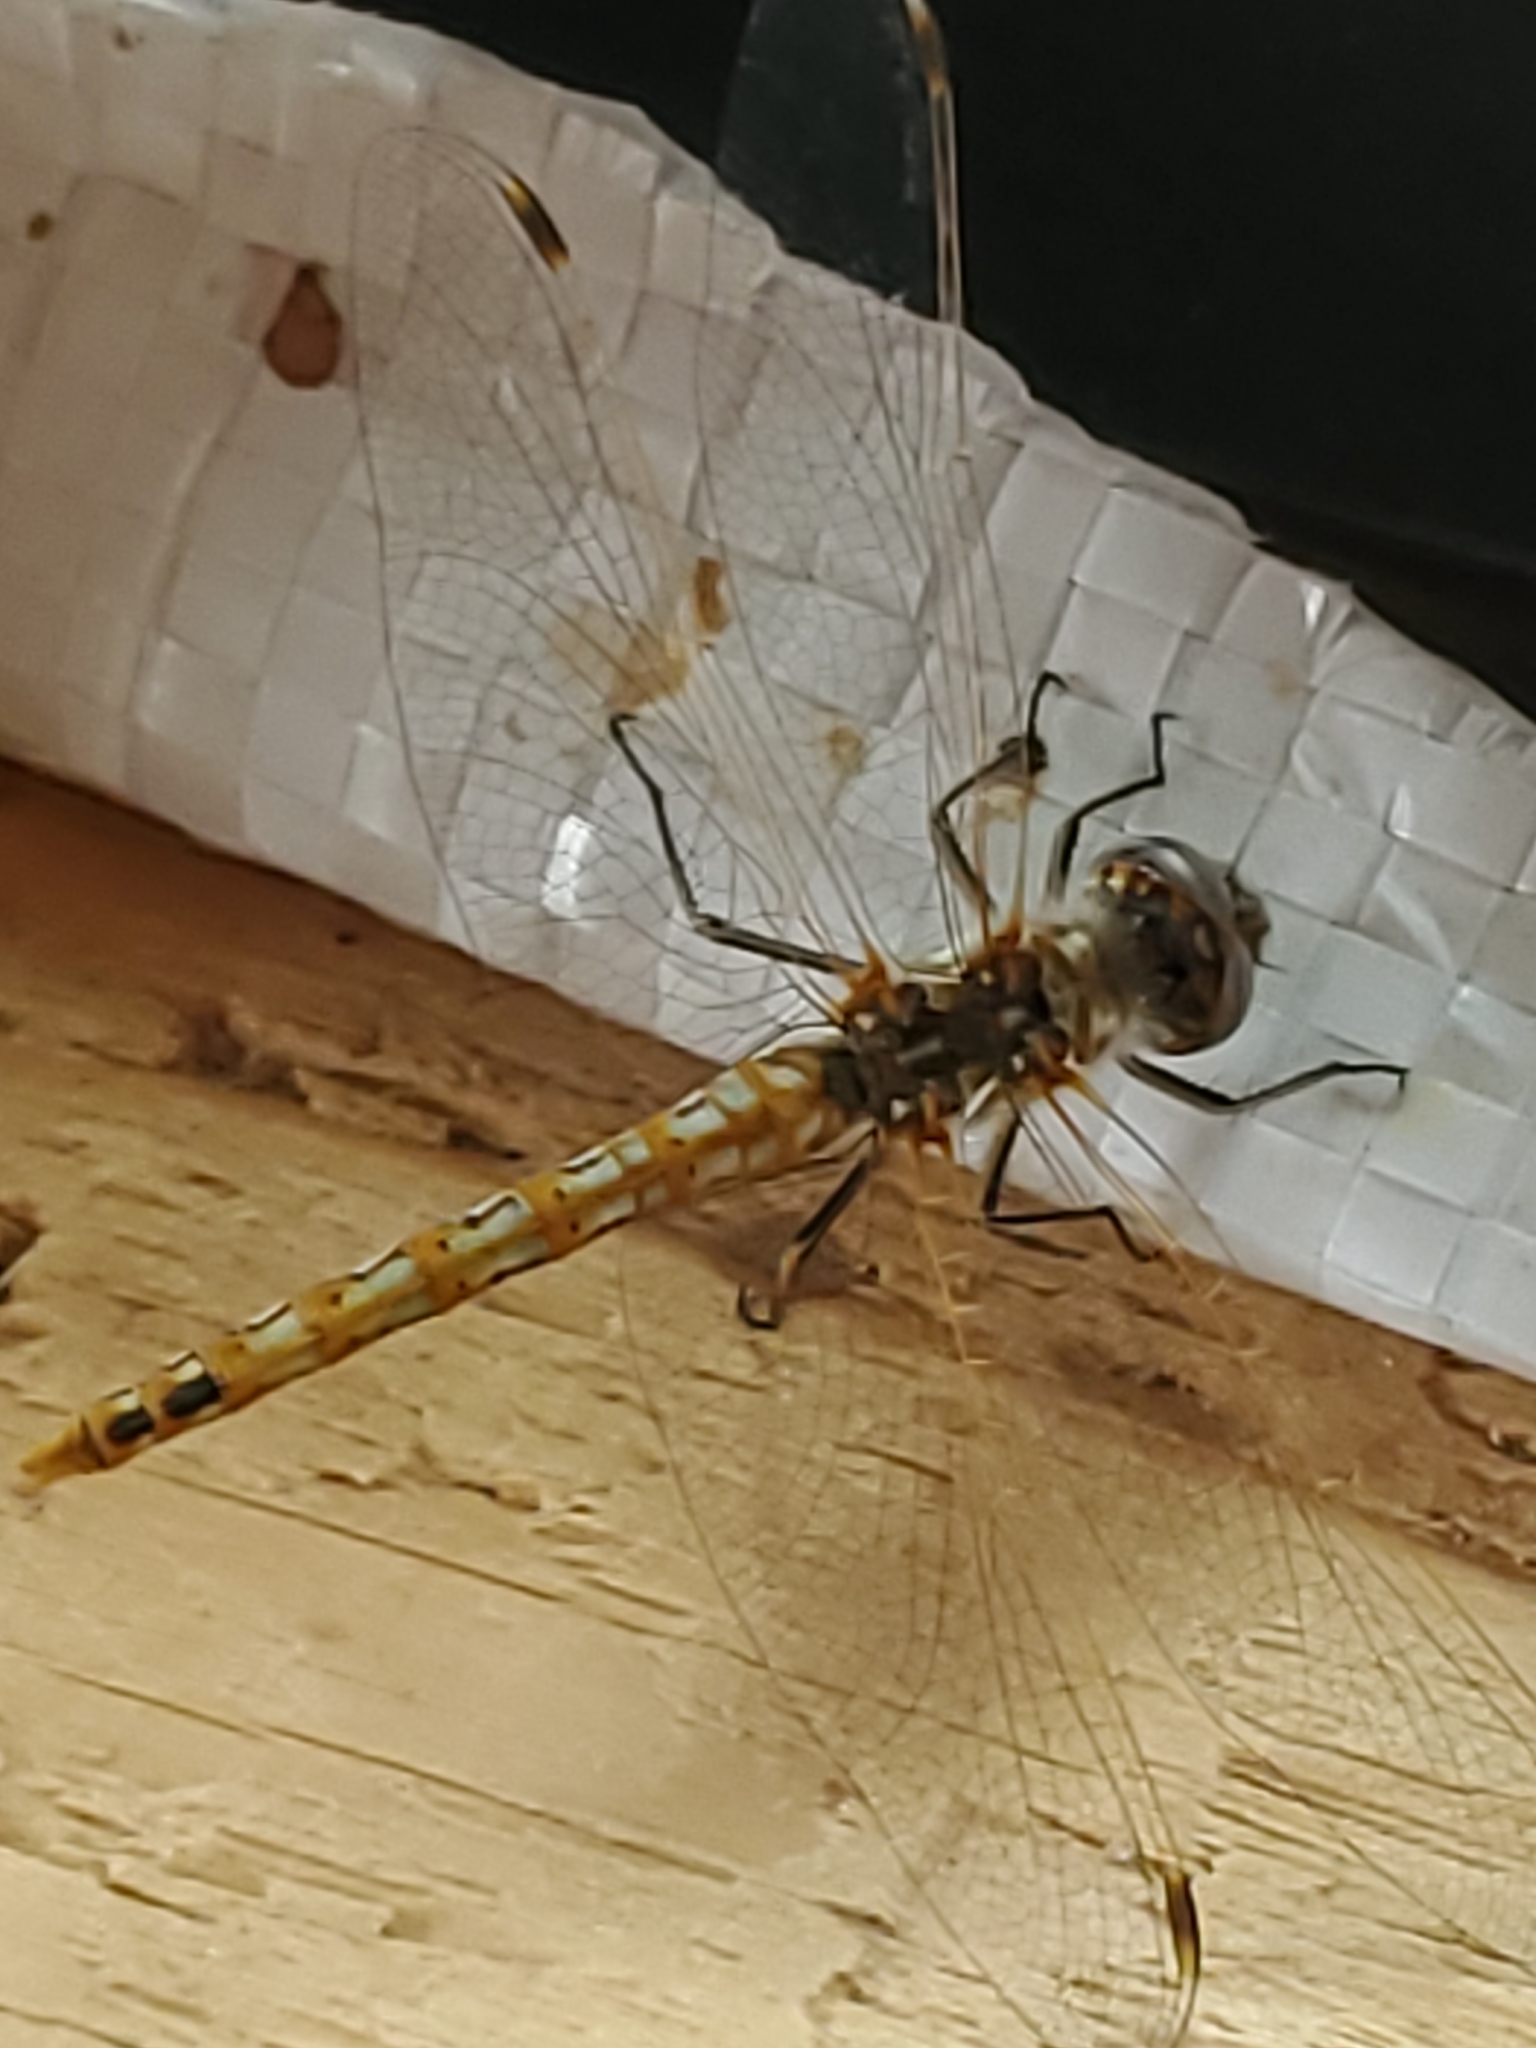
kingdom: Animalia
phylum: Arthropoda
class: Insecta
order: Odonata
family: Libellulidae
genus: Sympetrum
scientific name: Sympetrum corruptum
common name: Variegated meadowhawk
